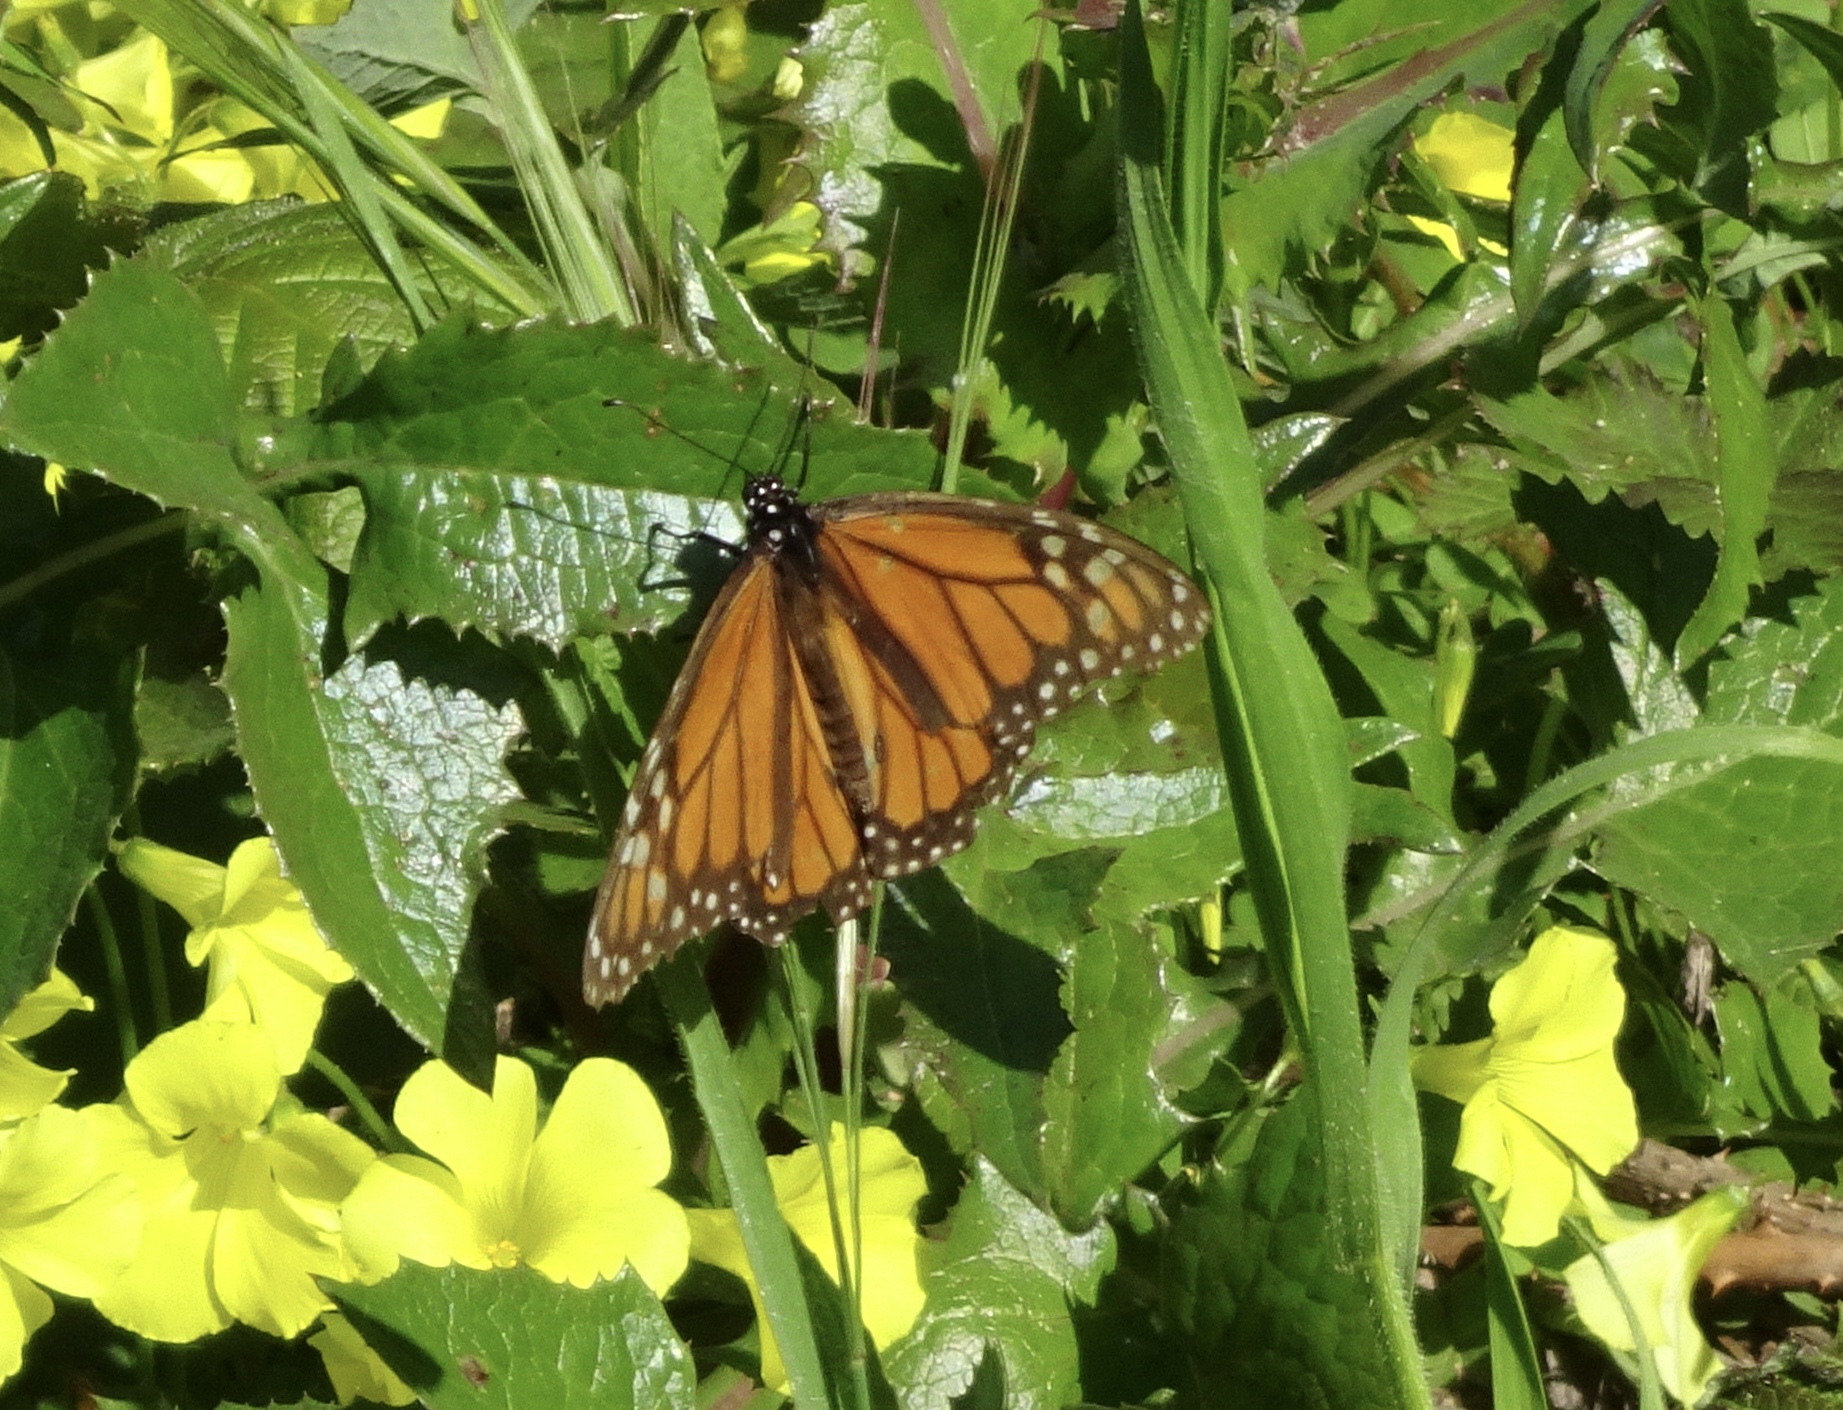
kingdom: Animalia
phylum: Arthropoda
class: Insecta
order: Lepidoptera
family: Nymphalidae
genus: Danaus
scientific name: Danaus plexippus
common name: Monarch
